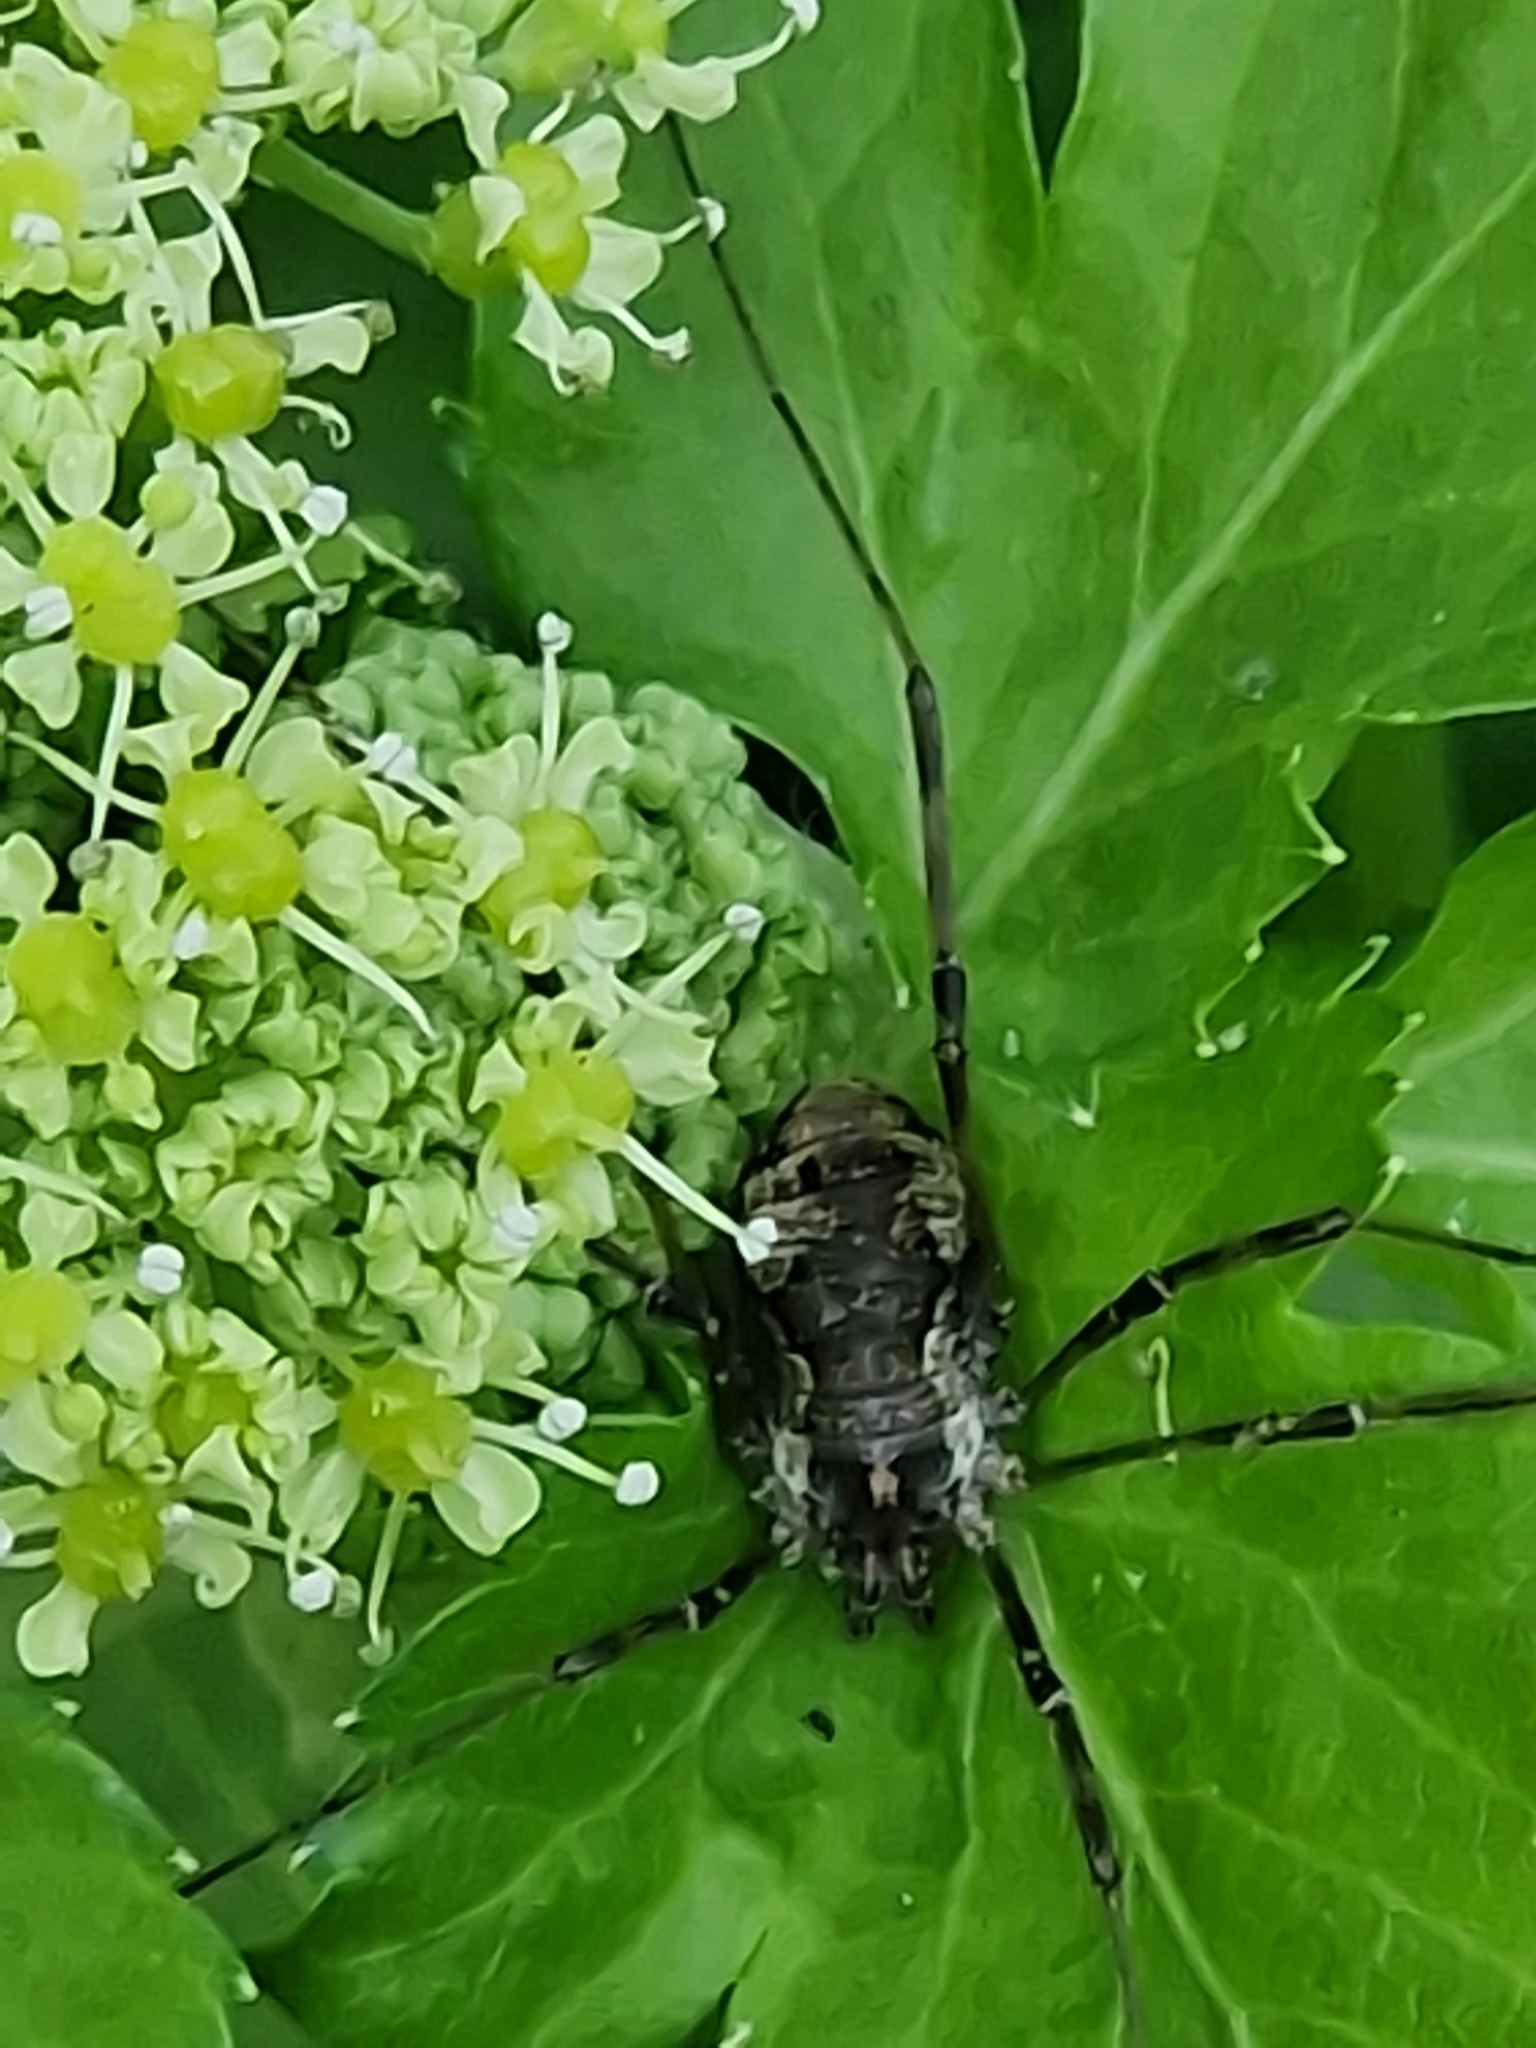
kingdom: Animalia
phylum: Arthropoda
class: Arachnida
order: Opiliones
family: Phalangiidae
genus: Dasylobus
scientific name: Dasylobus graniferus
